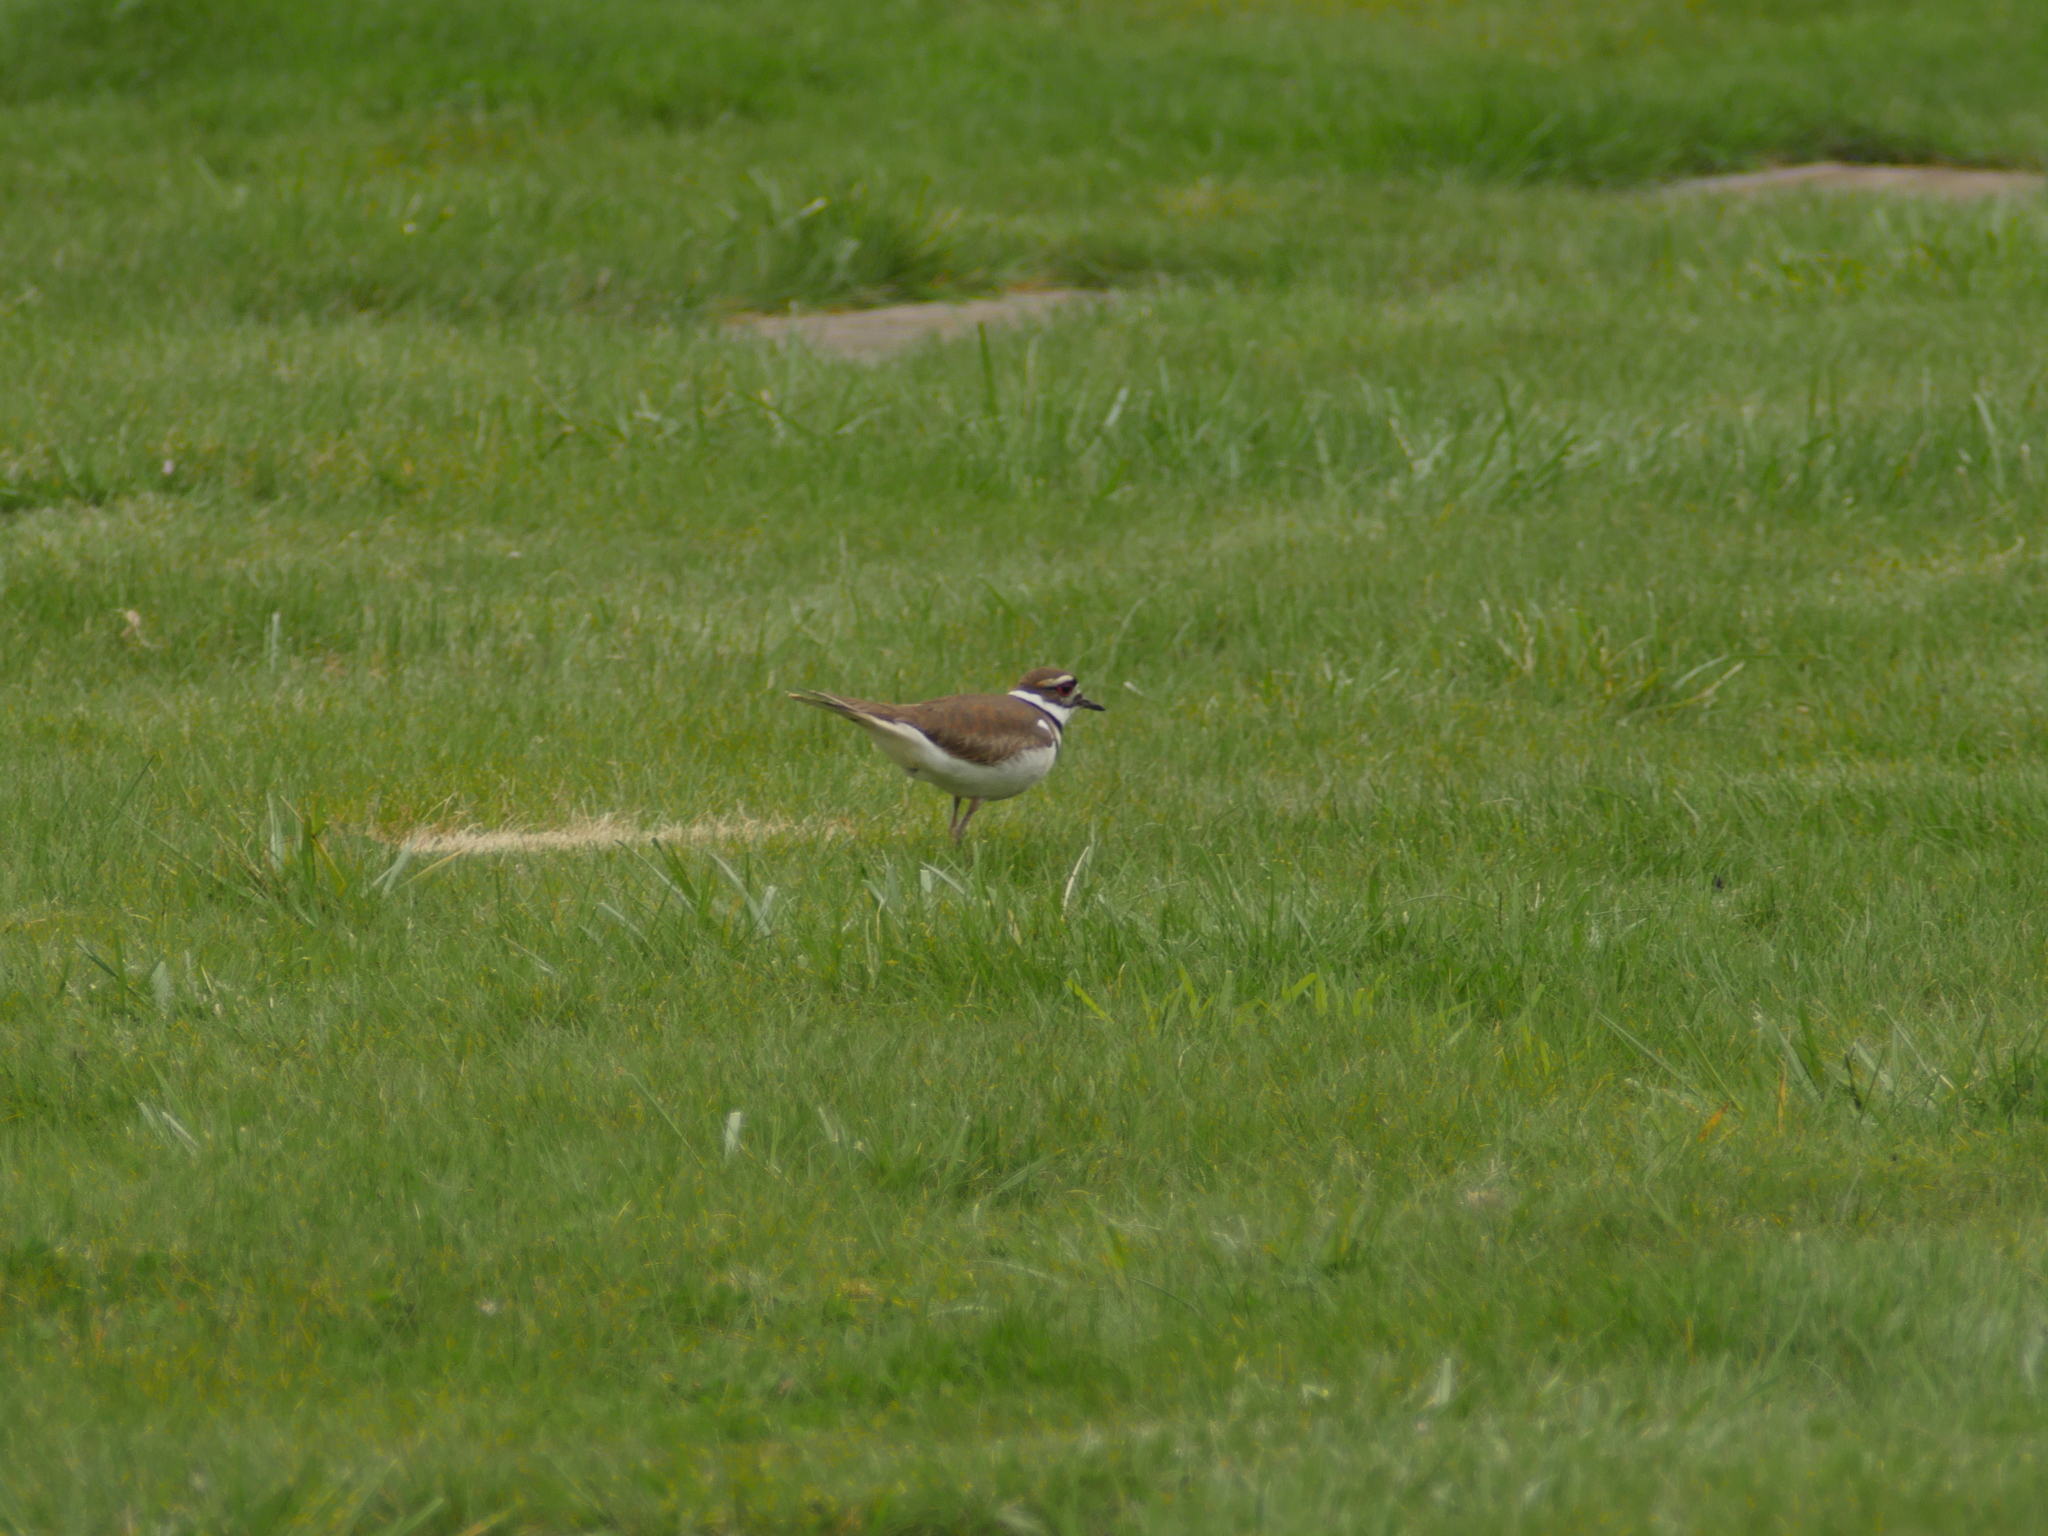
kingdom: Animalia
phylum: Chordata
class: Aves
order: Charadriiformes
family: Charadriidae
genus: Charadrius
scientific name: Charadrius vociferus
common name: Killdeer
